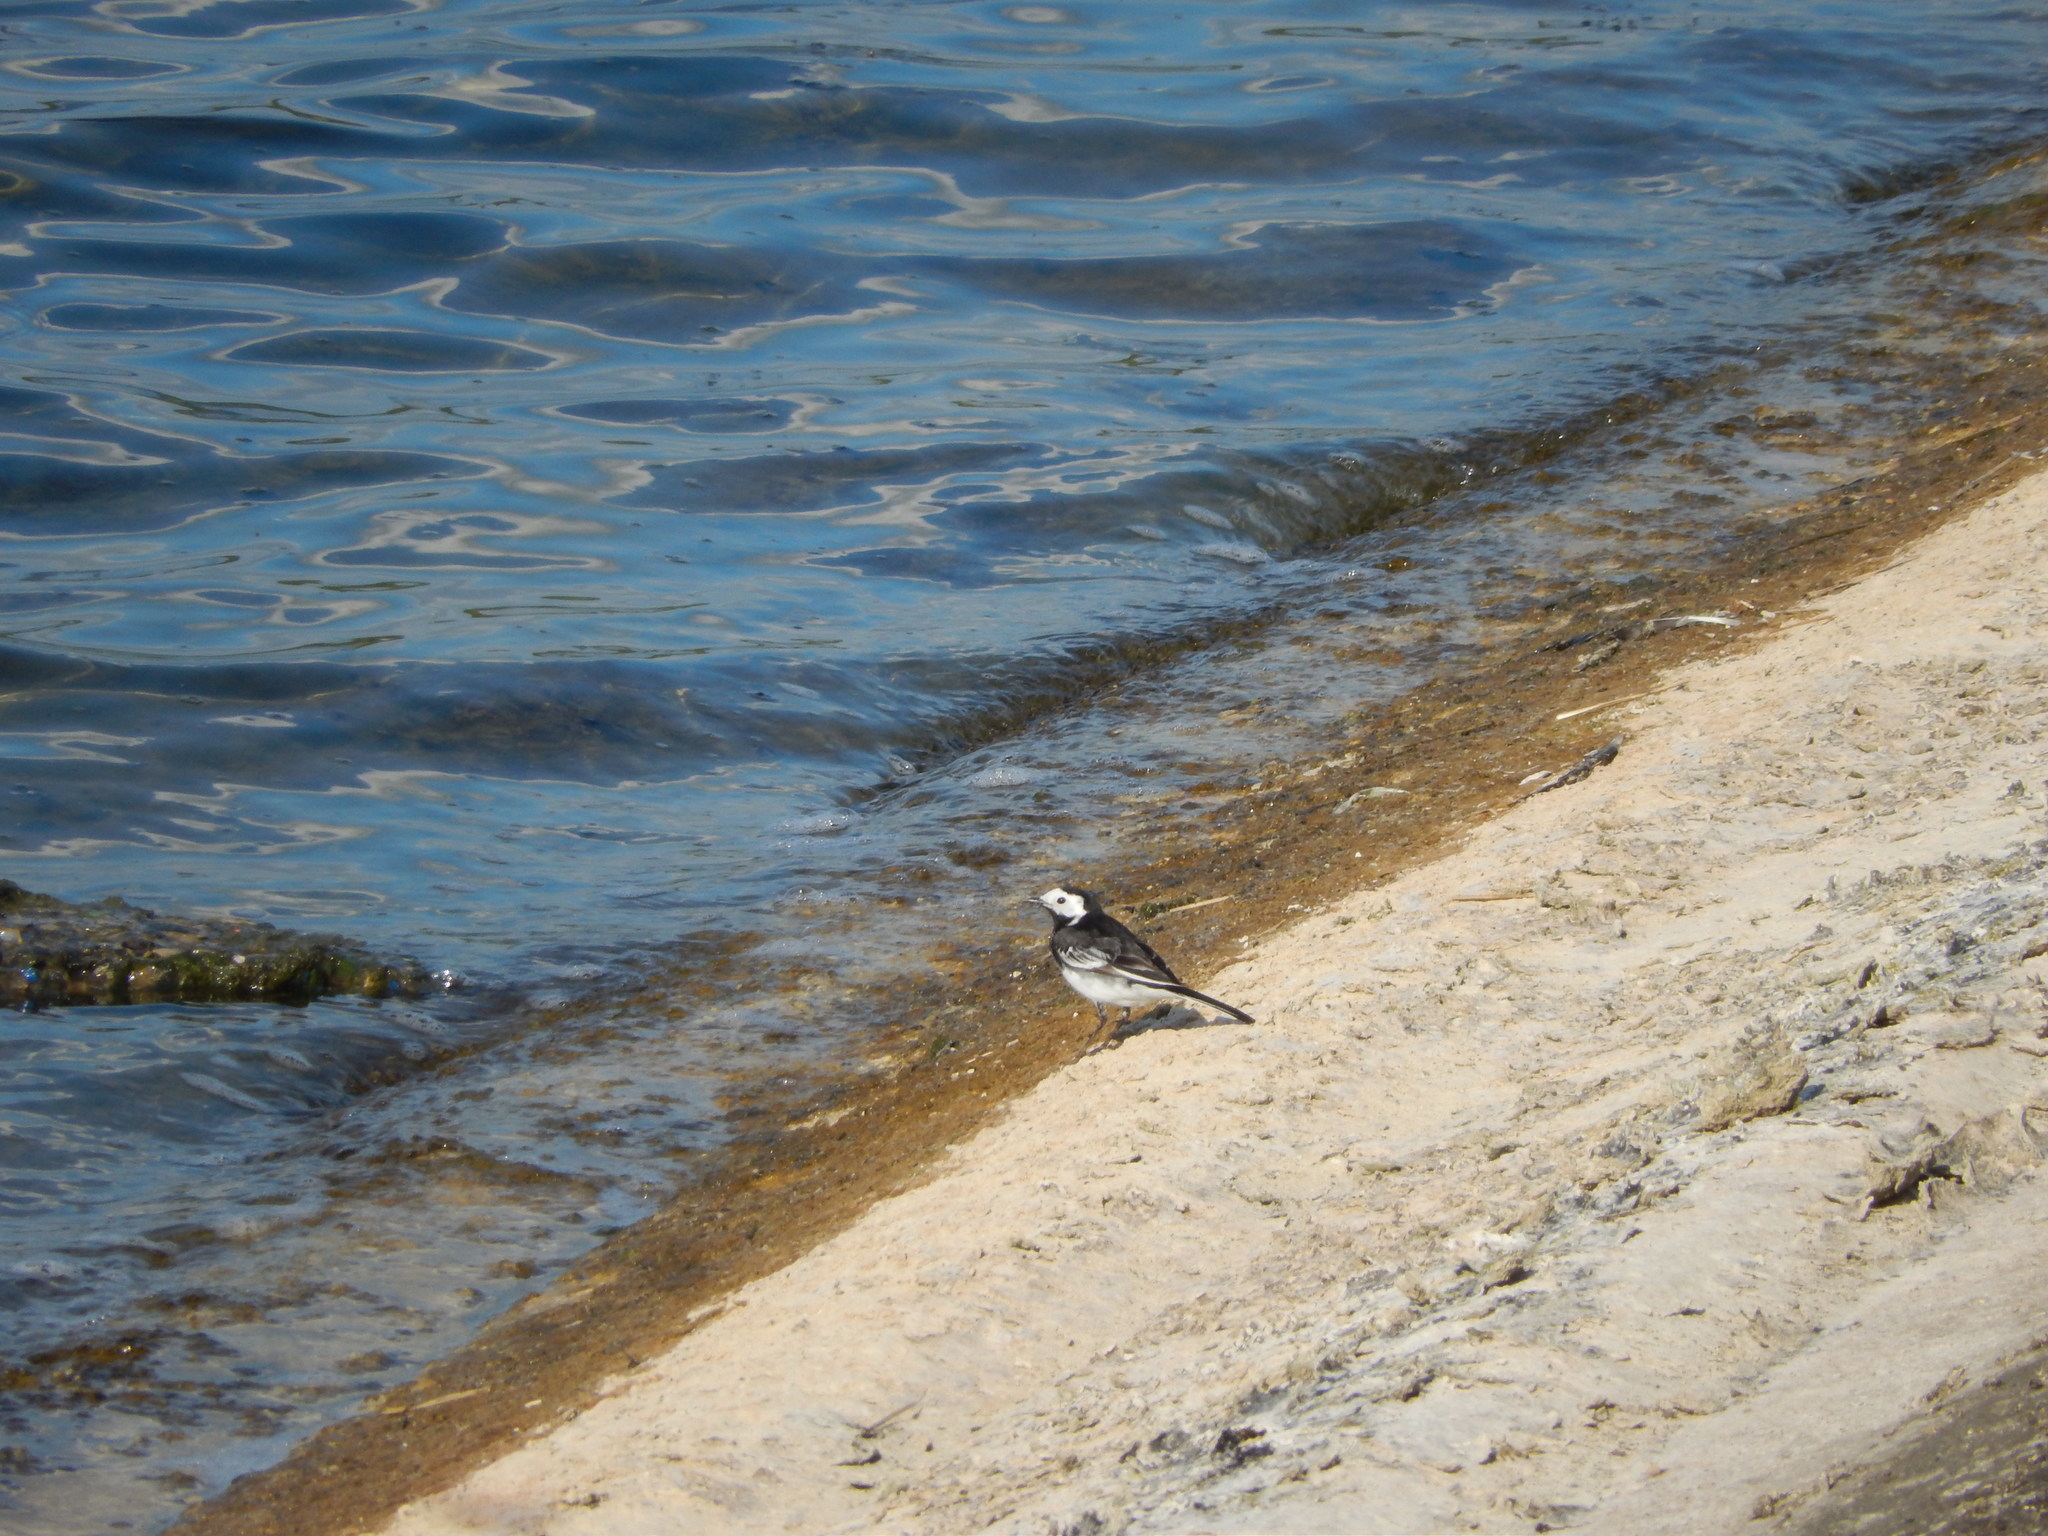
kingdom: Animalia
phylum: Chordata
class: Aves
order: Passeriformes
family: Motacillidae
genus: Motacilla
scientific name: Motacilla alba
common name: White wagtail
